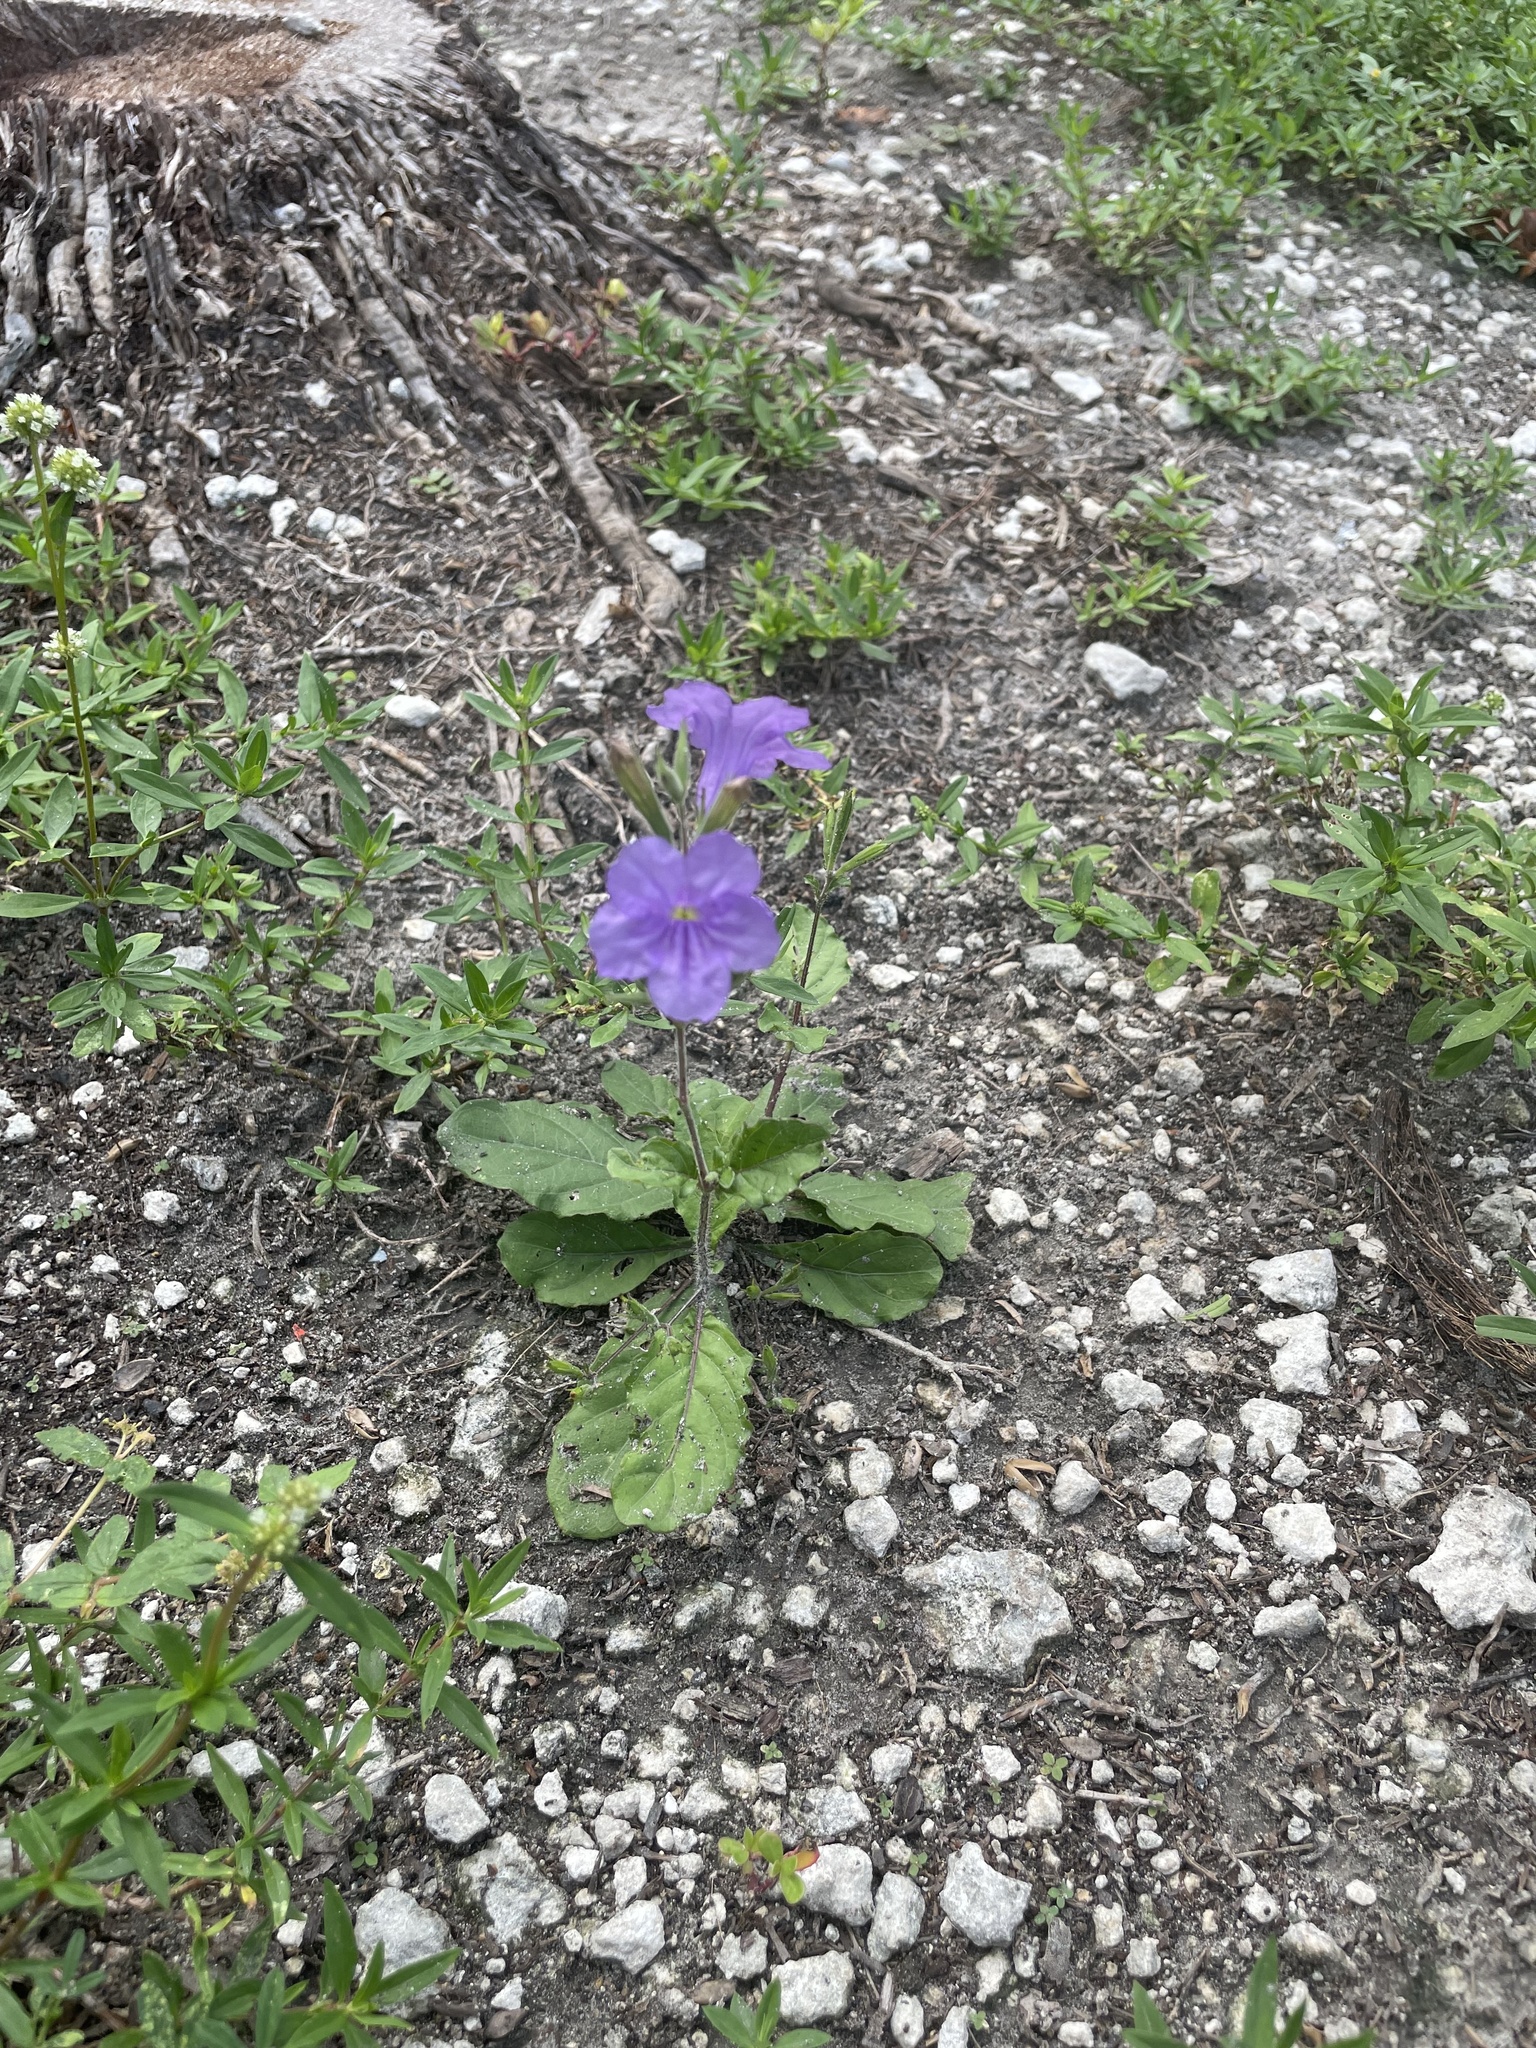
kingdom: Plantae
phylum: Tracheophyta
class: Magnoliopsida
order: Lamiales
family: Acanthaceae
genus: Ruellia
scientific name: Ruellia ciliatiflora
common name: Hairyflower wild petunia
